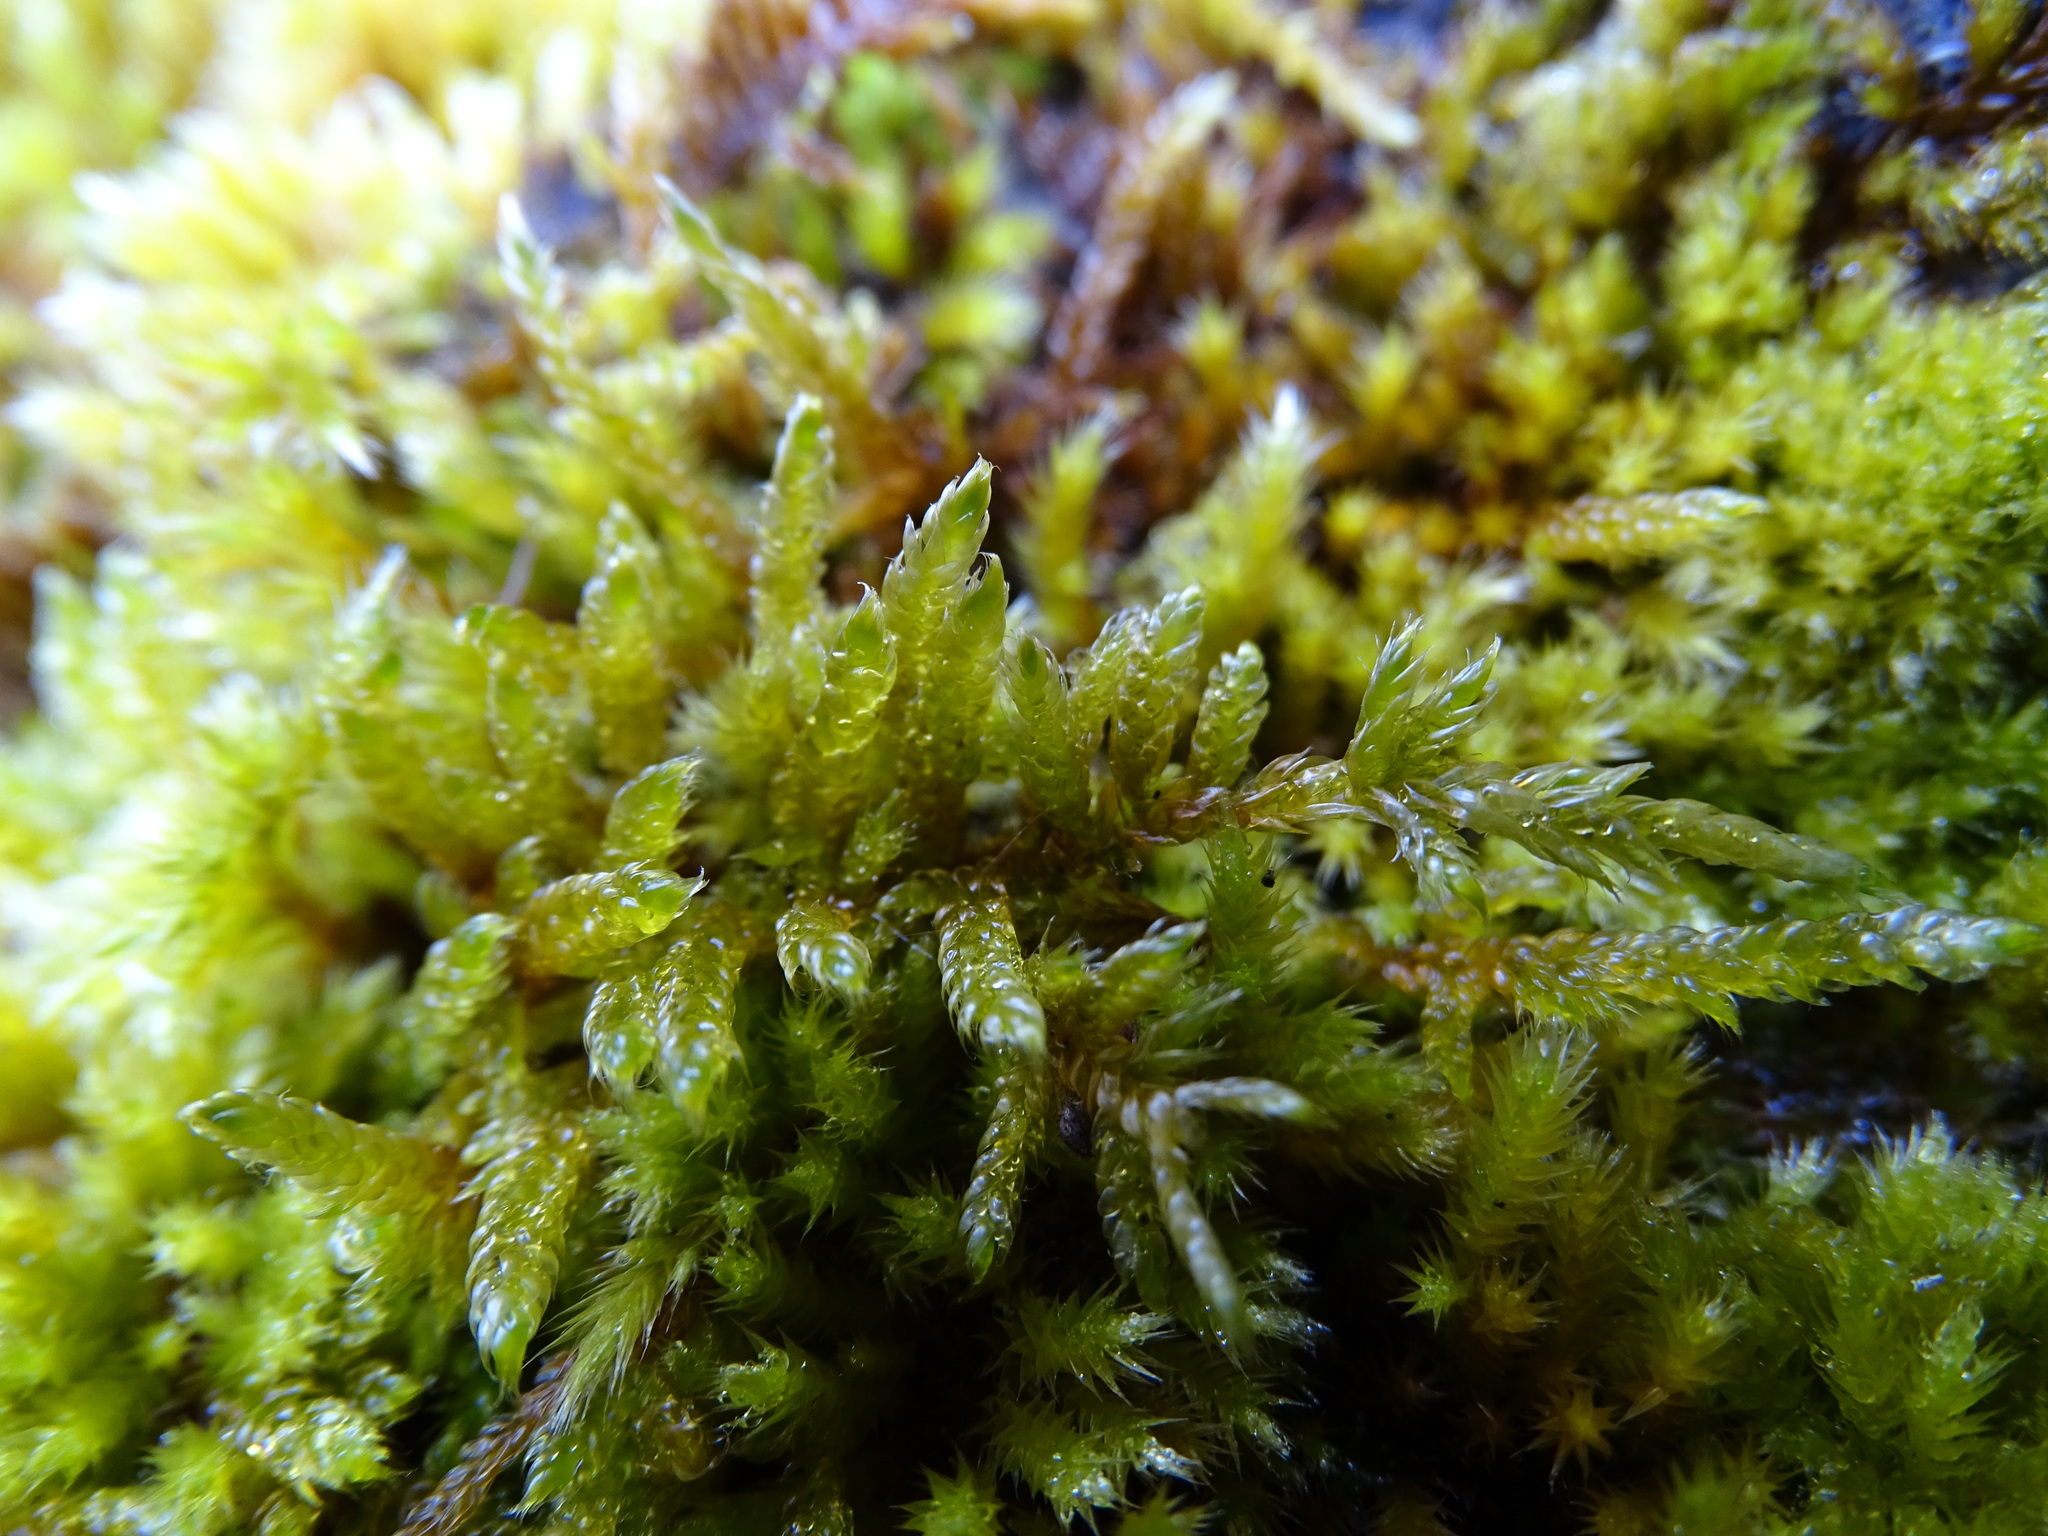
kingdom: Plantae
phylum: Bryophyta
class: Bryopsida
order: Hypnales
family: Hypnaceae
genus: Hypnum
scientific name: Hypnum cupressiforme
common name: Cypress-leaved plait-moss
